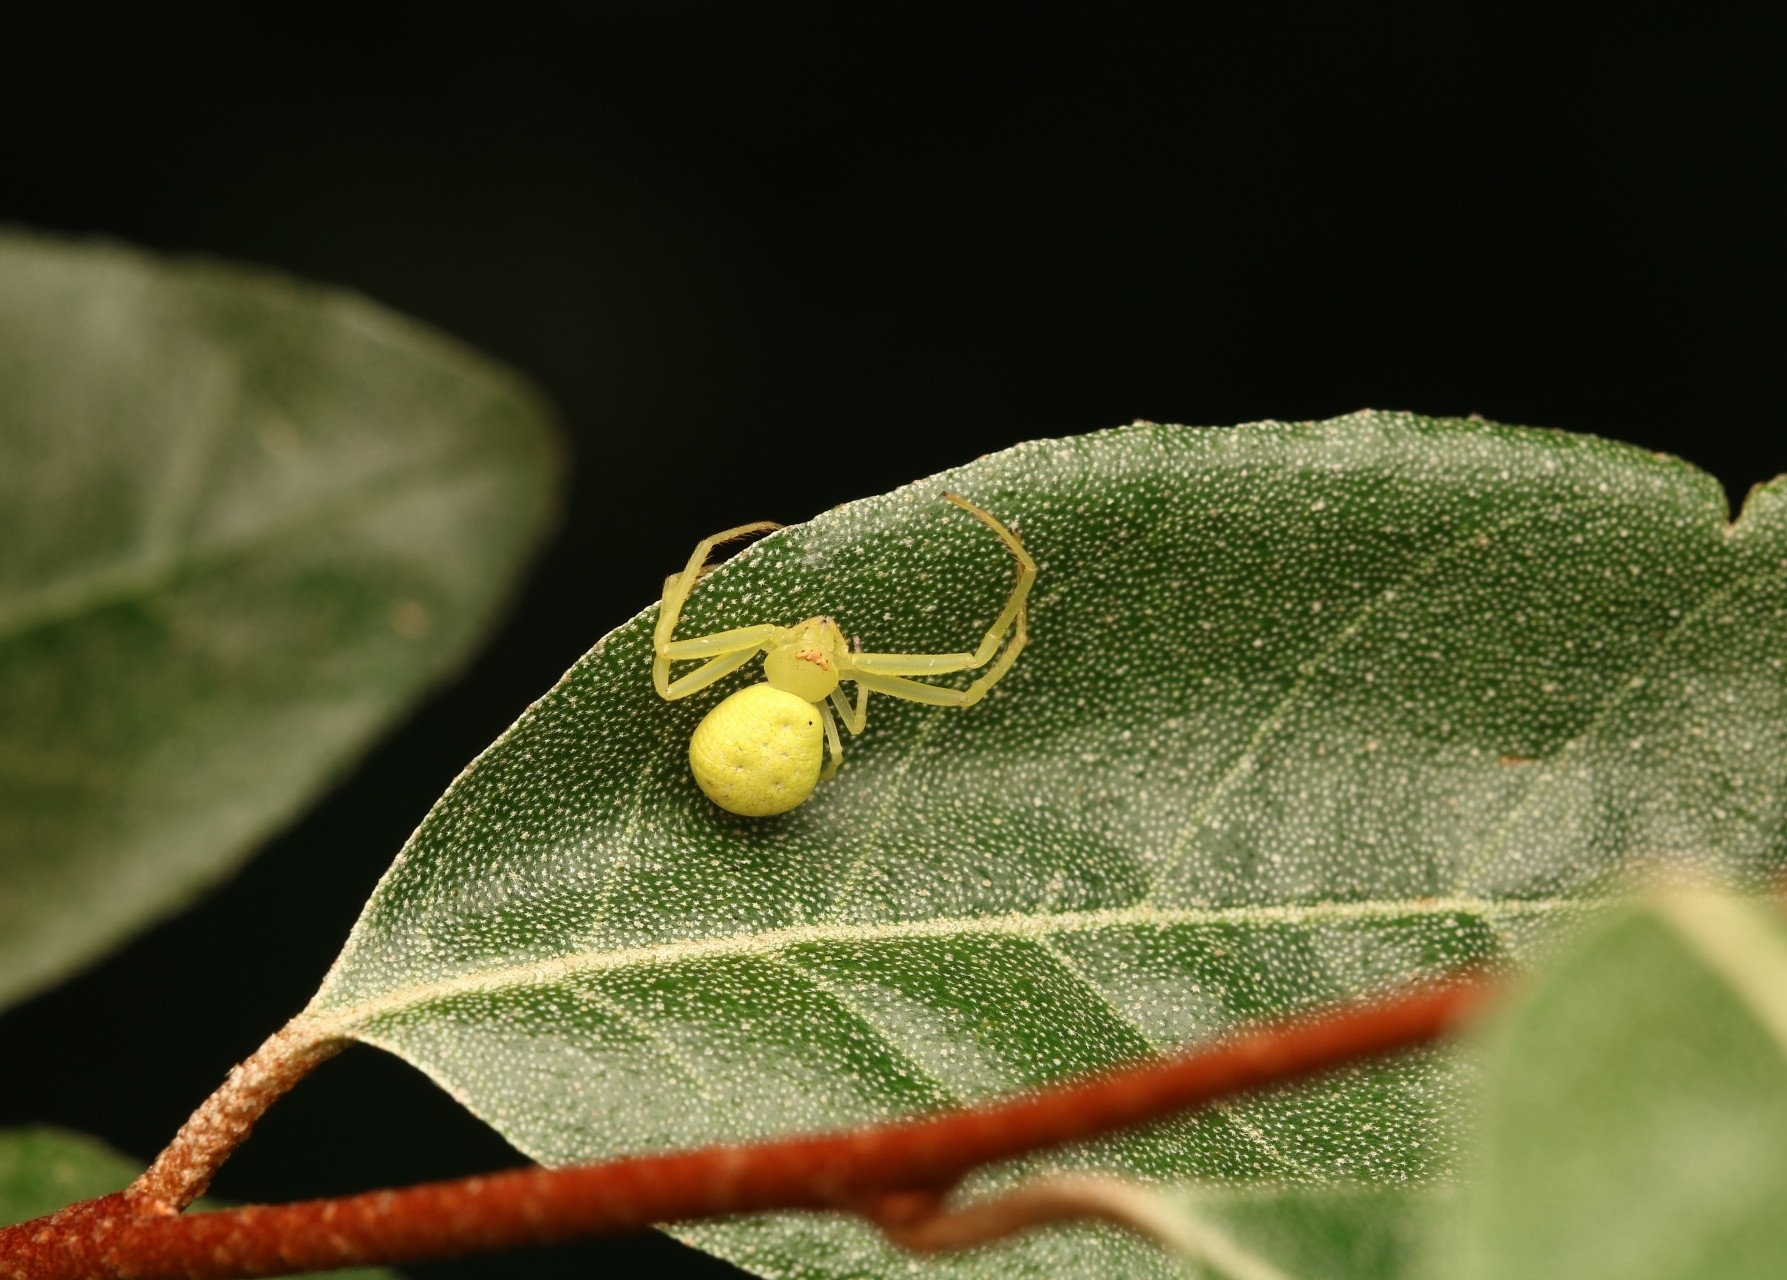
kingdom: Animalia
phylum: Arthropoda
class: Arachnida
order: Araneae
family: Thomisidae
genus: Misumessus
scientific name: Misumessus oblongus
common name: American green crab spider
